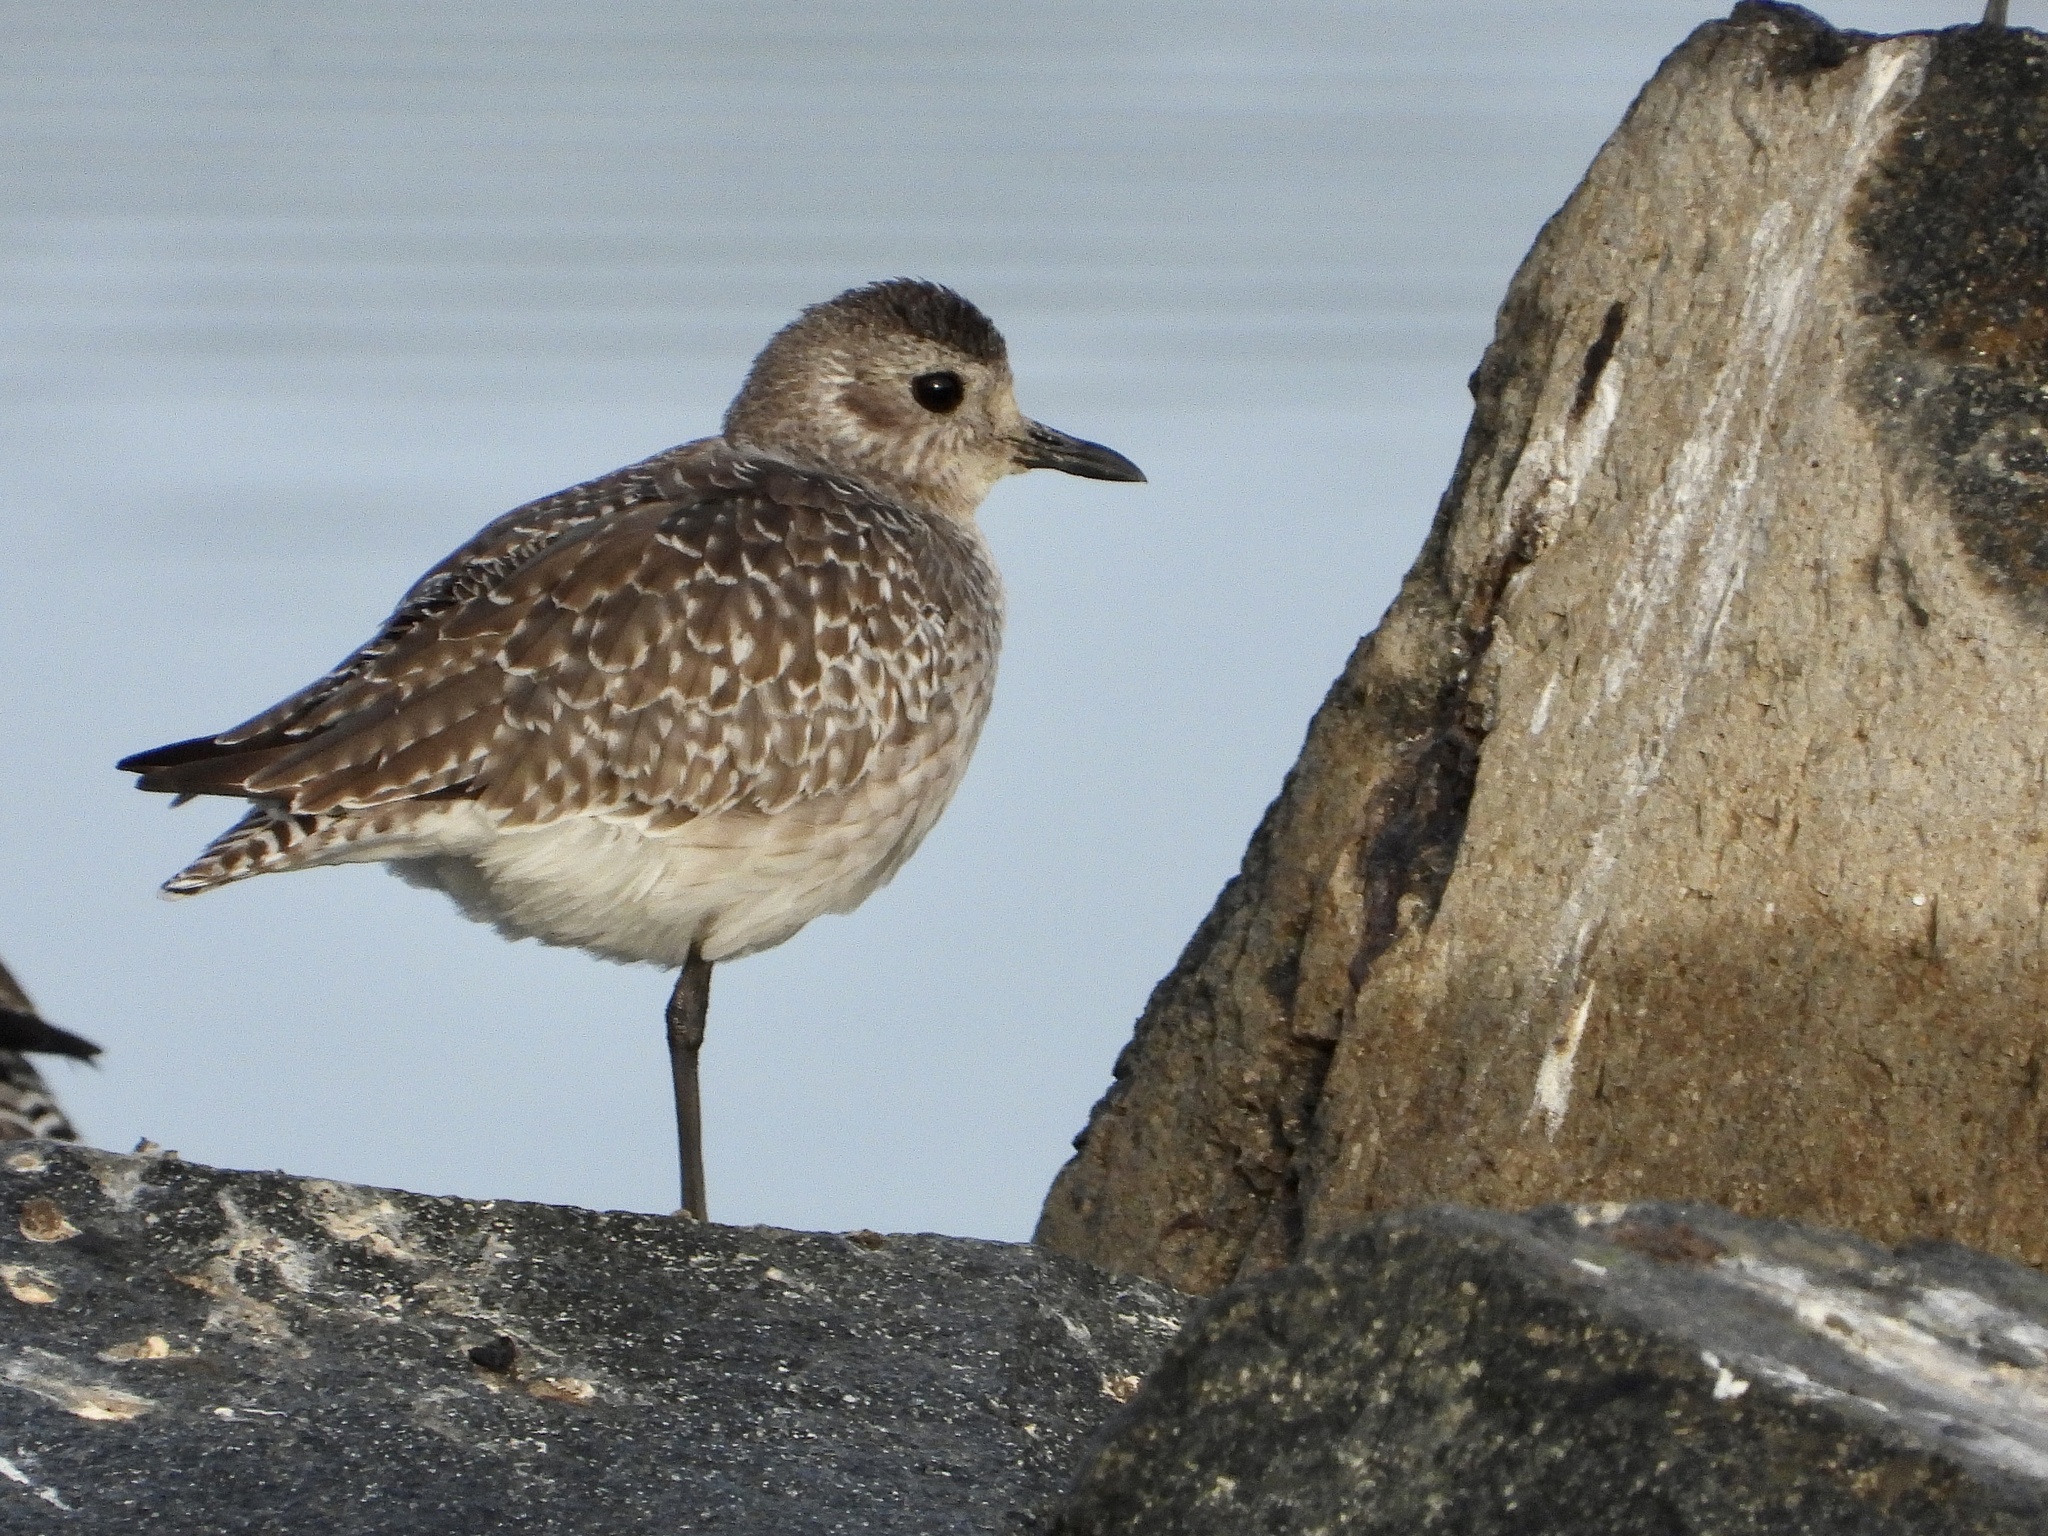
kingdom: Animalia
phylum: Chordata
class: Aves
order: Charadriiformes
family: Charadriidae
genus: Pluvialis
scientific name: Pluvialis squatarola
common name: Grey plover
